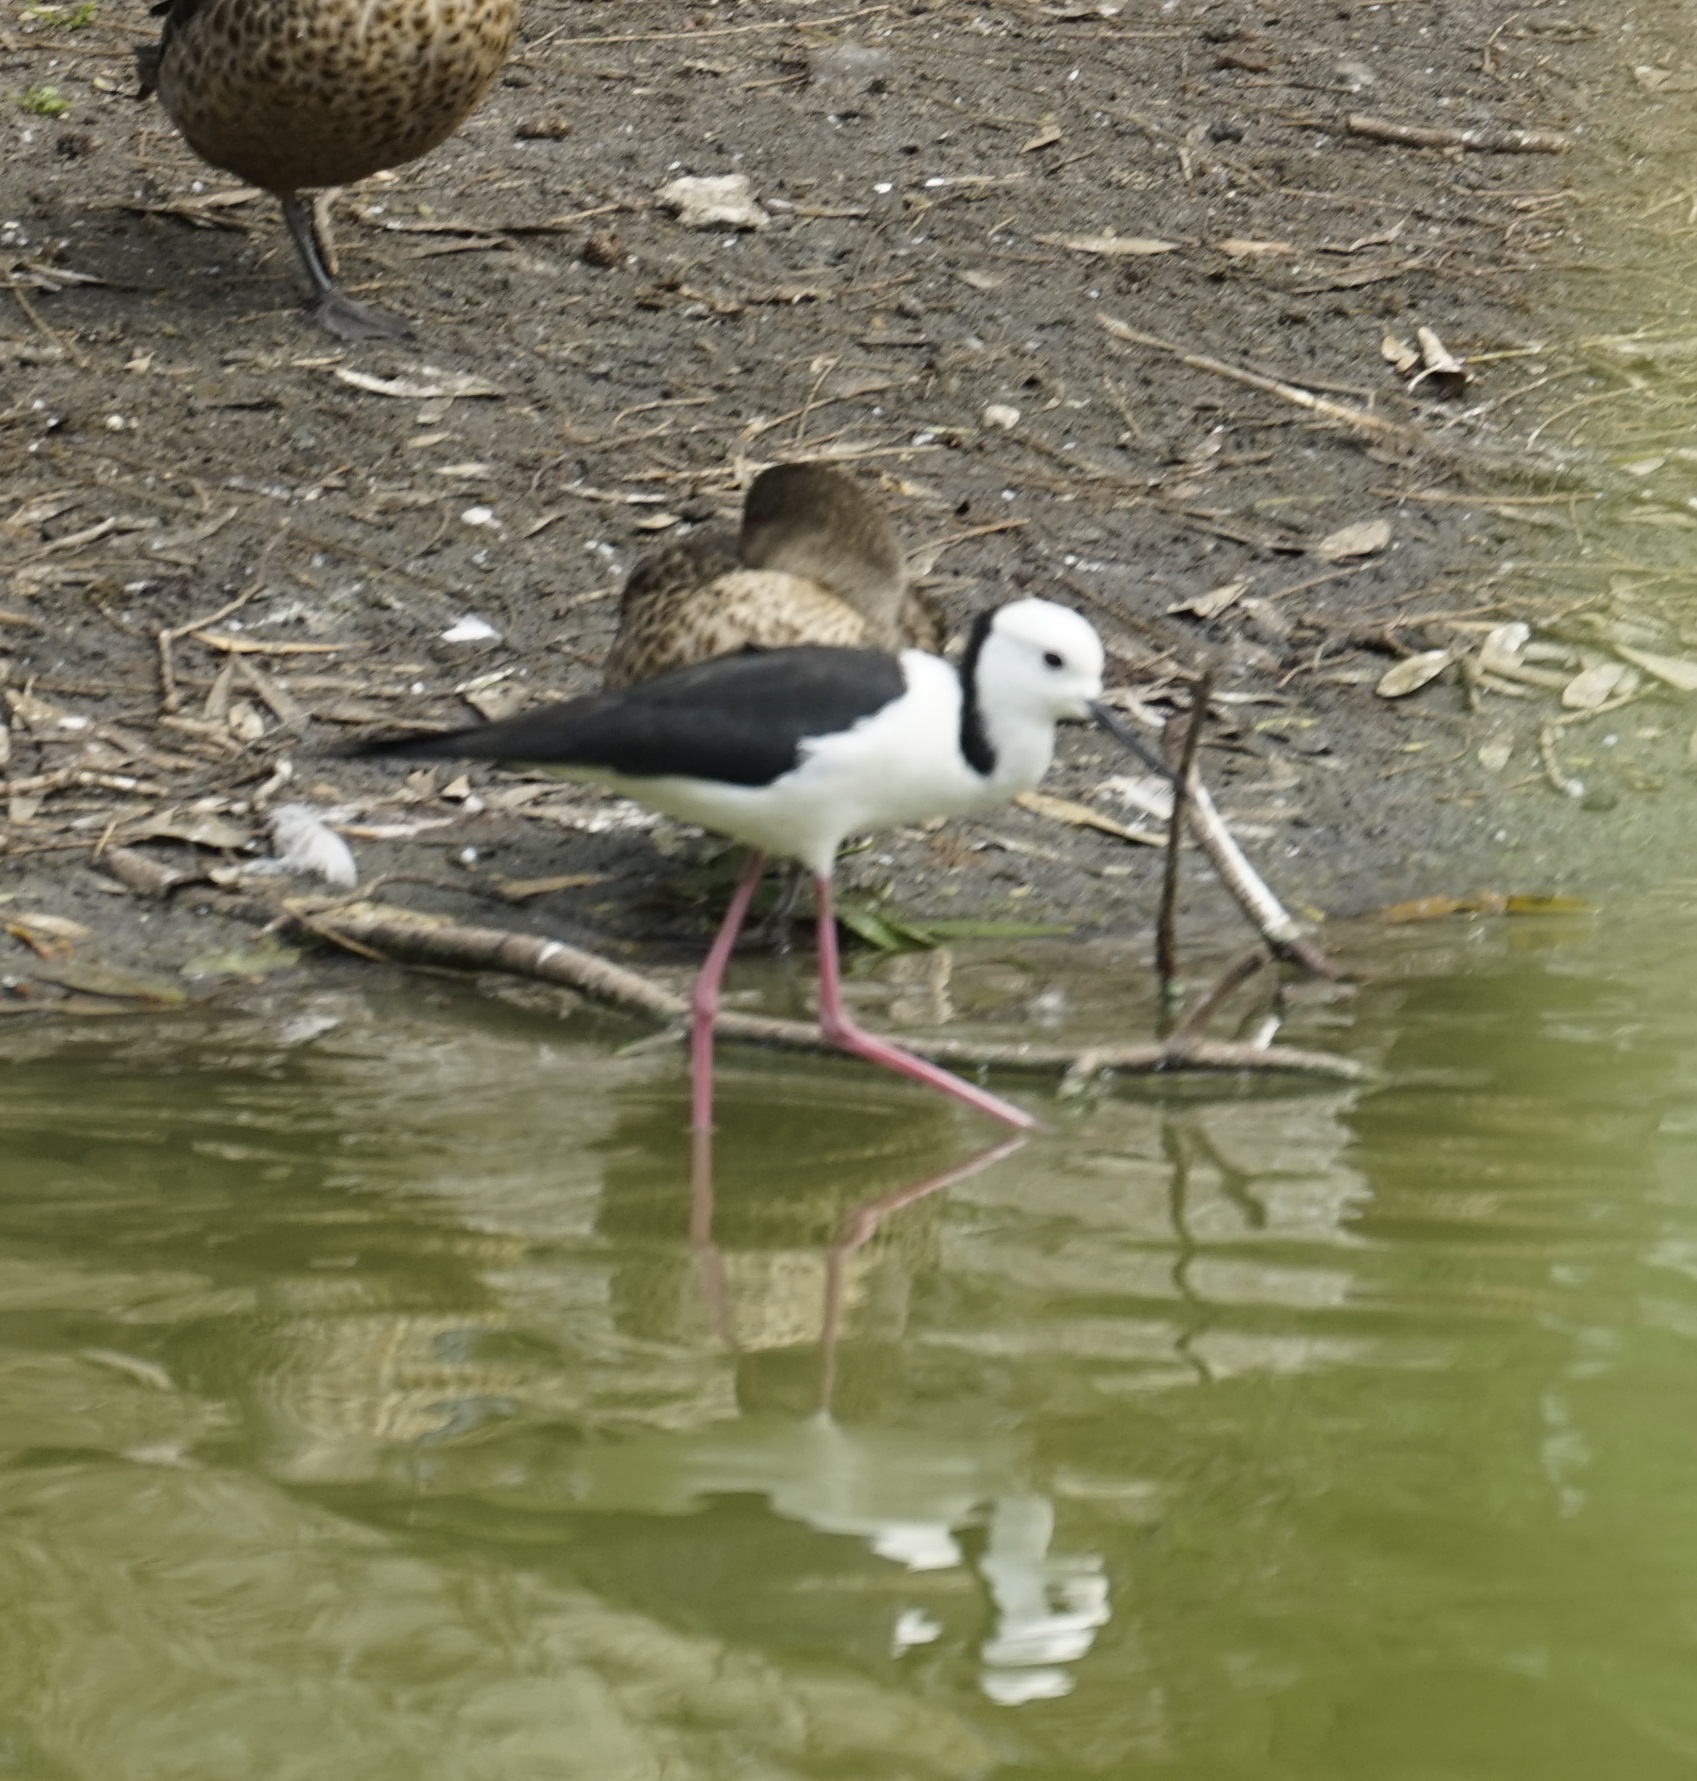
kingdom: Animalia
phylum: Chordata
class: Aves
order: Charadriiformes
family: Recurvirostridae
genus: Himantopus
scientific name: Himantopus leucocephalus
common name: White-headed stilt
